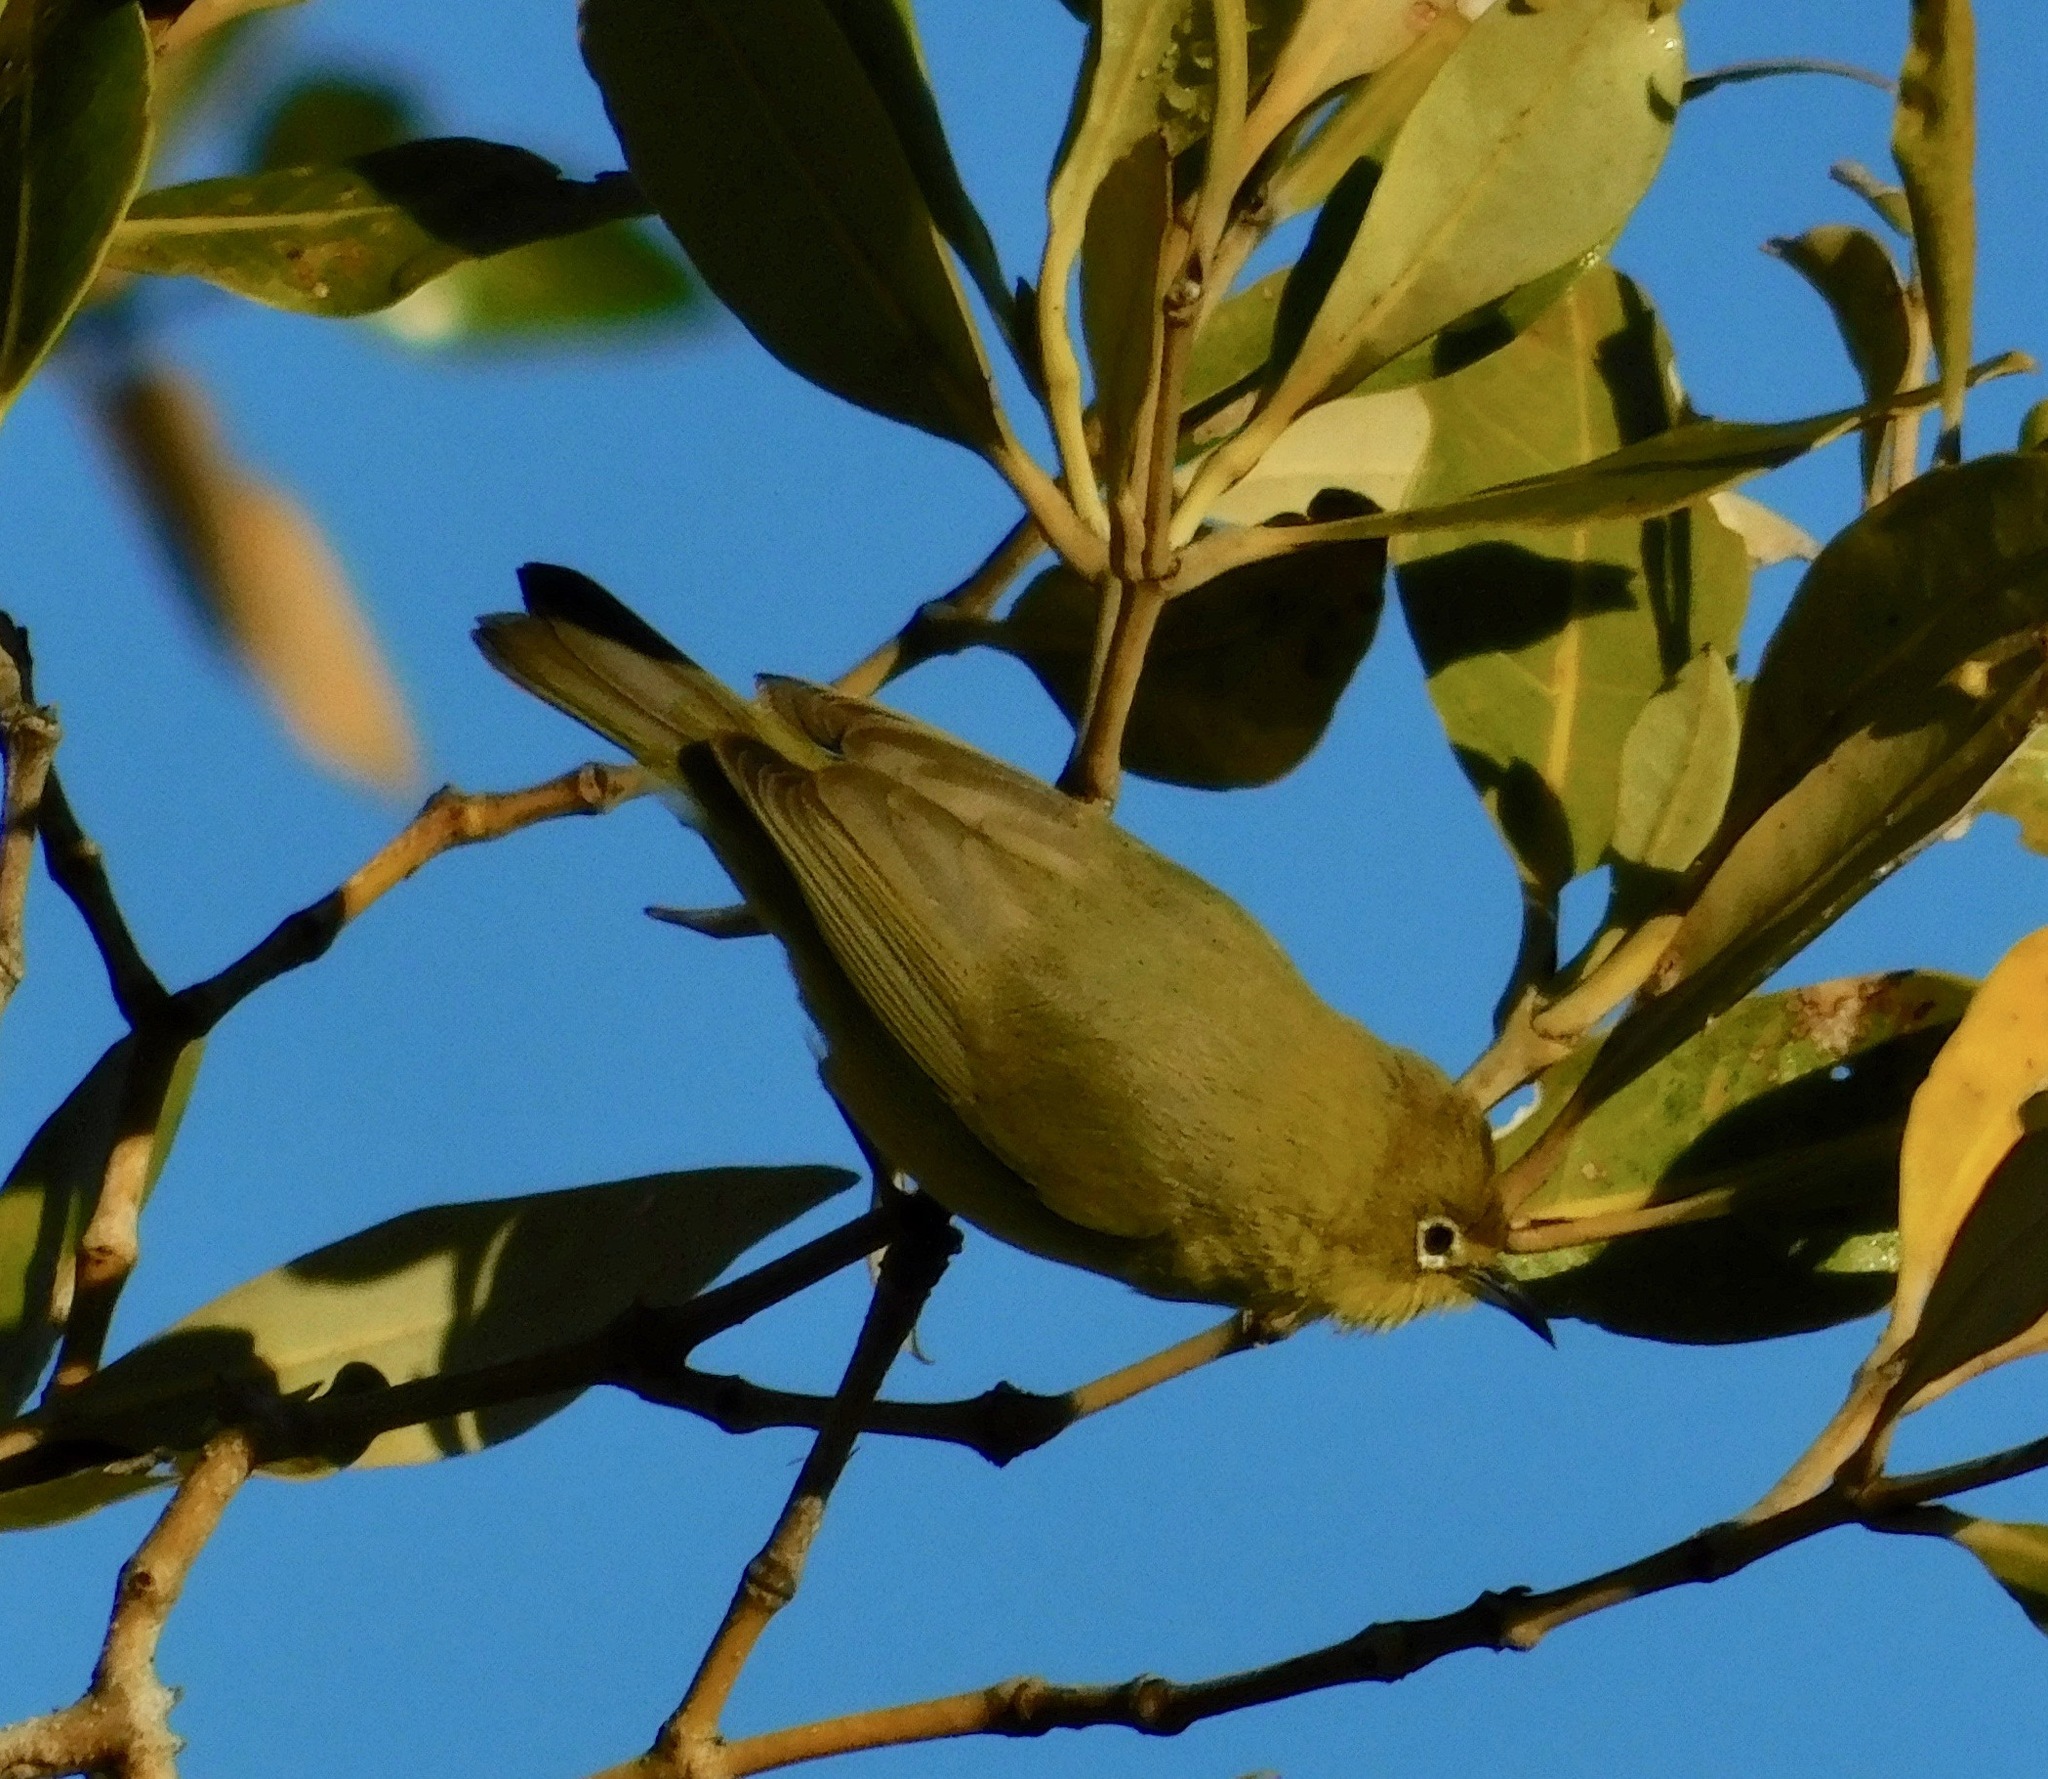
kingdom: Animalia
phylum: Chordata
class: Aves
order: Passeriformes
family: Zosteropidae
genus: Zosterops
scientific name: Zosterops luteus
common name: Canary white-eye
